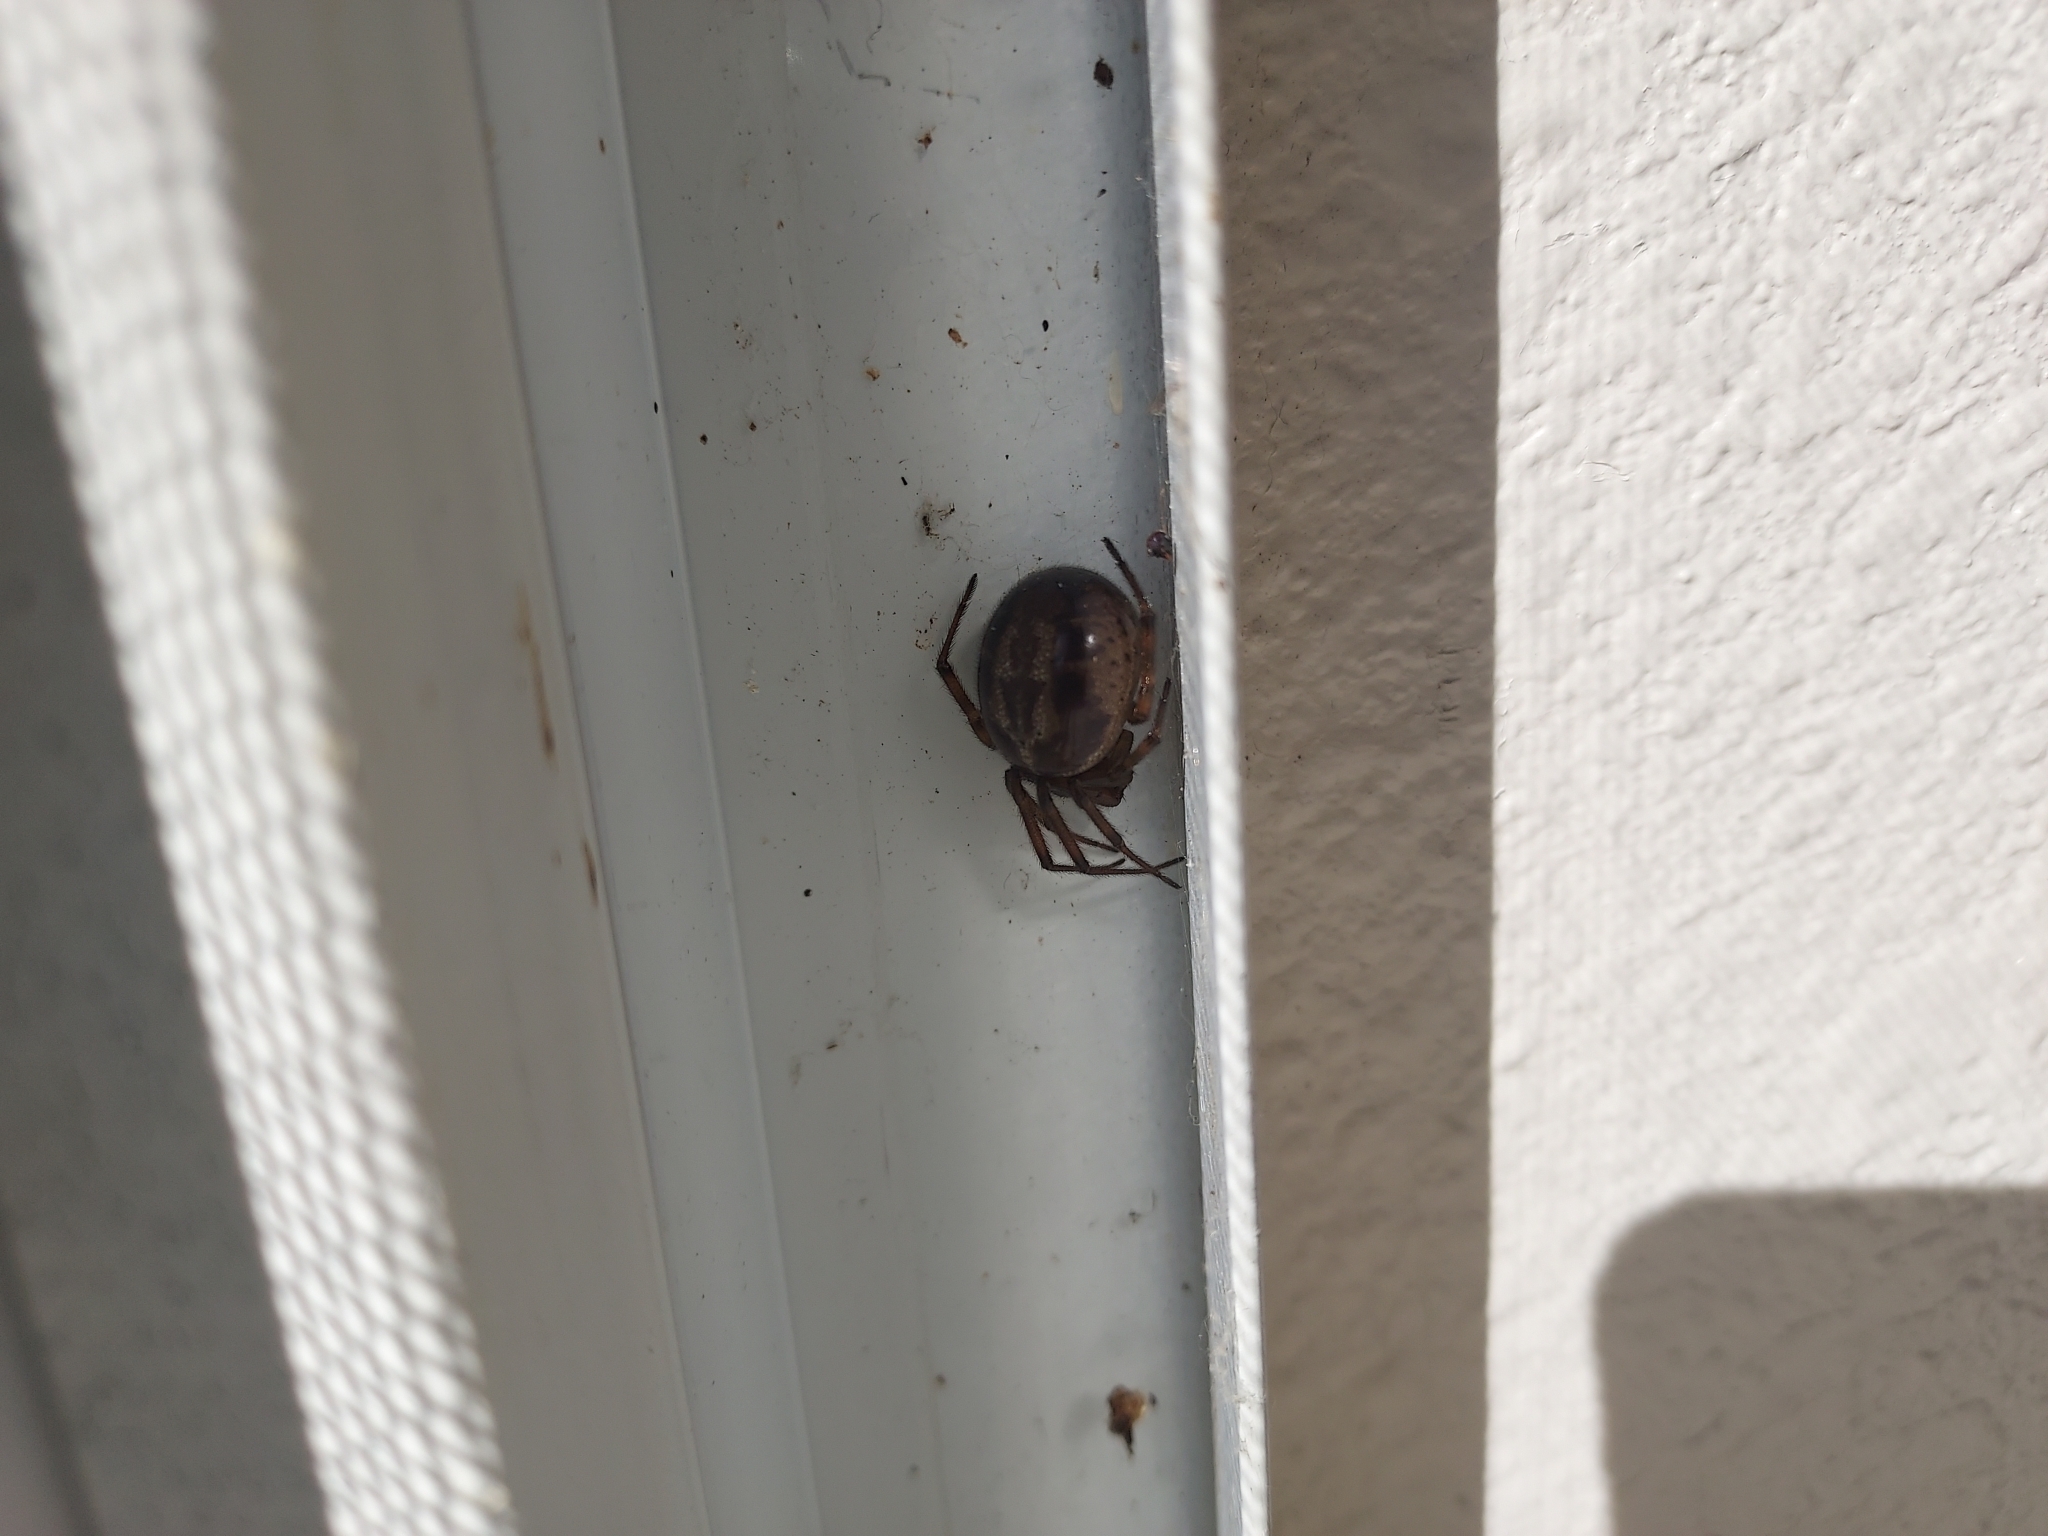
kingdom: Animalia
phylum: Arthropoda
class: Arachnida
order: Araneae
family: Theridiidae
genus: Steatoda
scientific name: Steatoda nobilis
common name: Cobweb weaver
